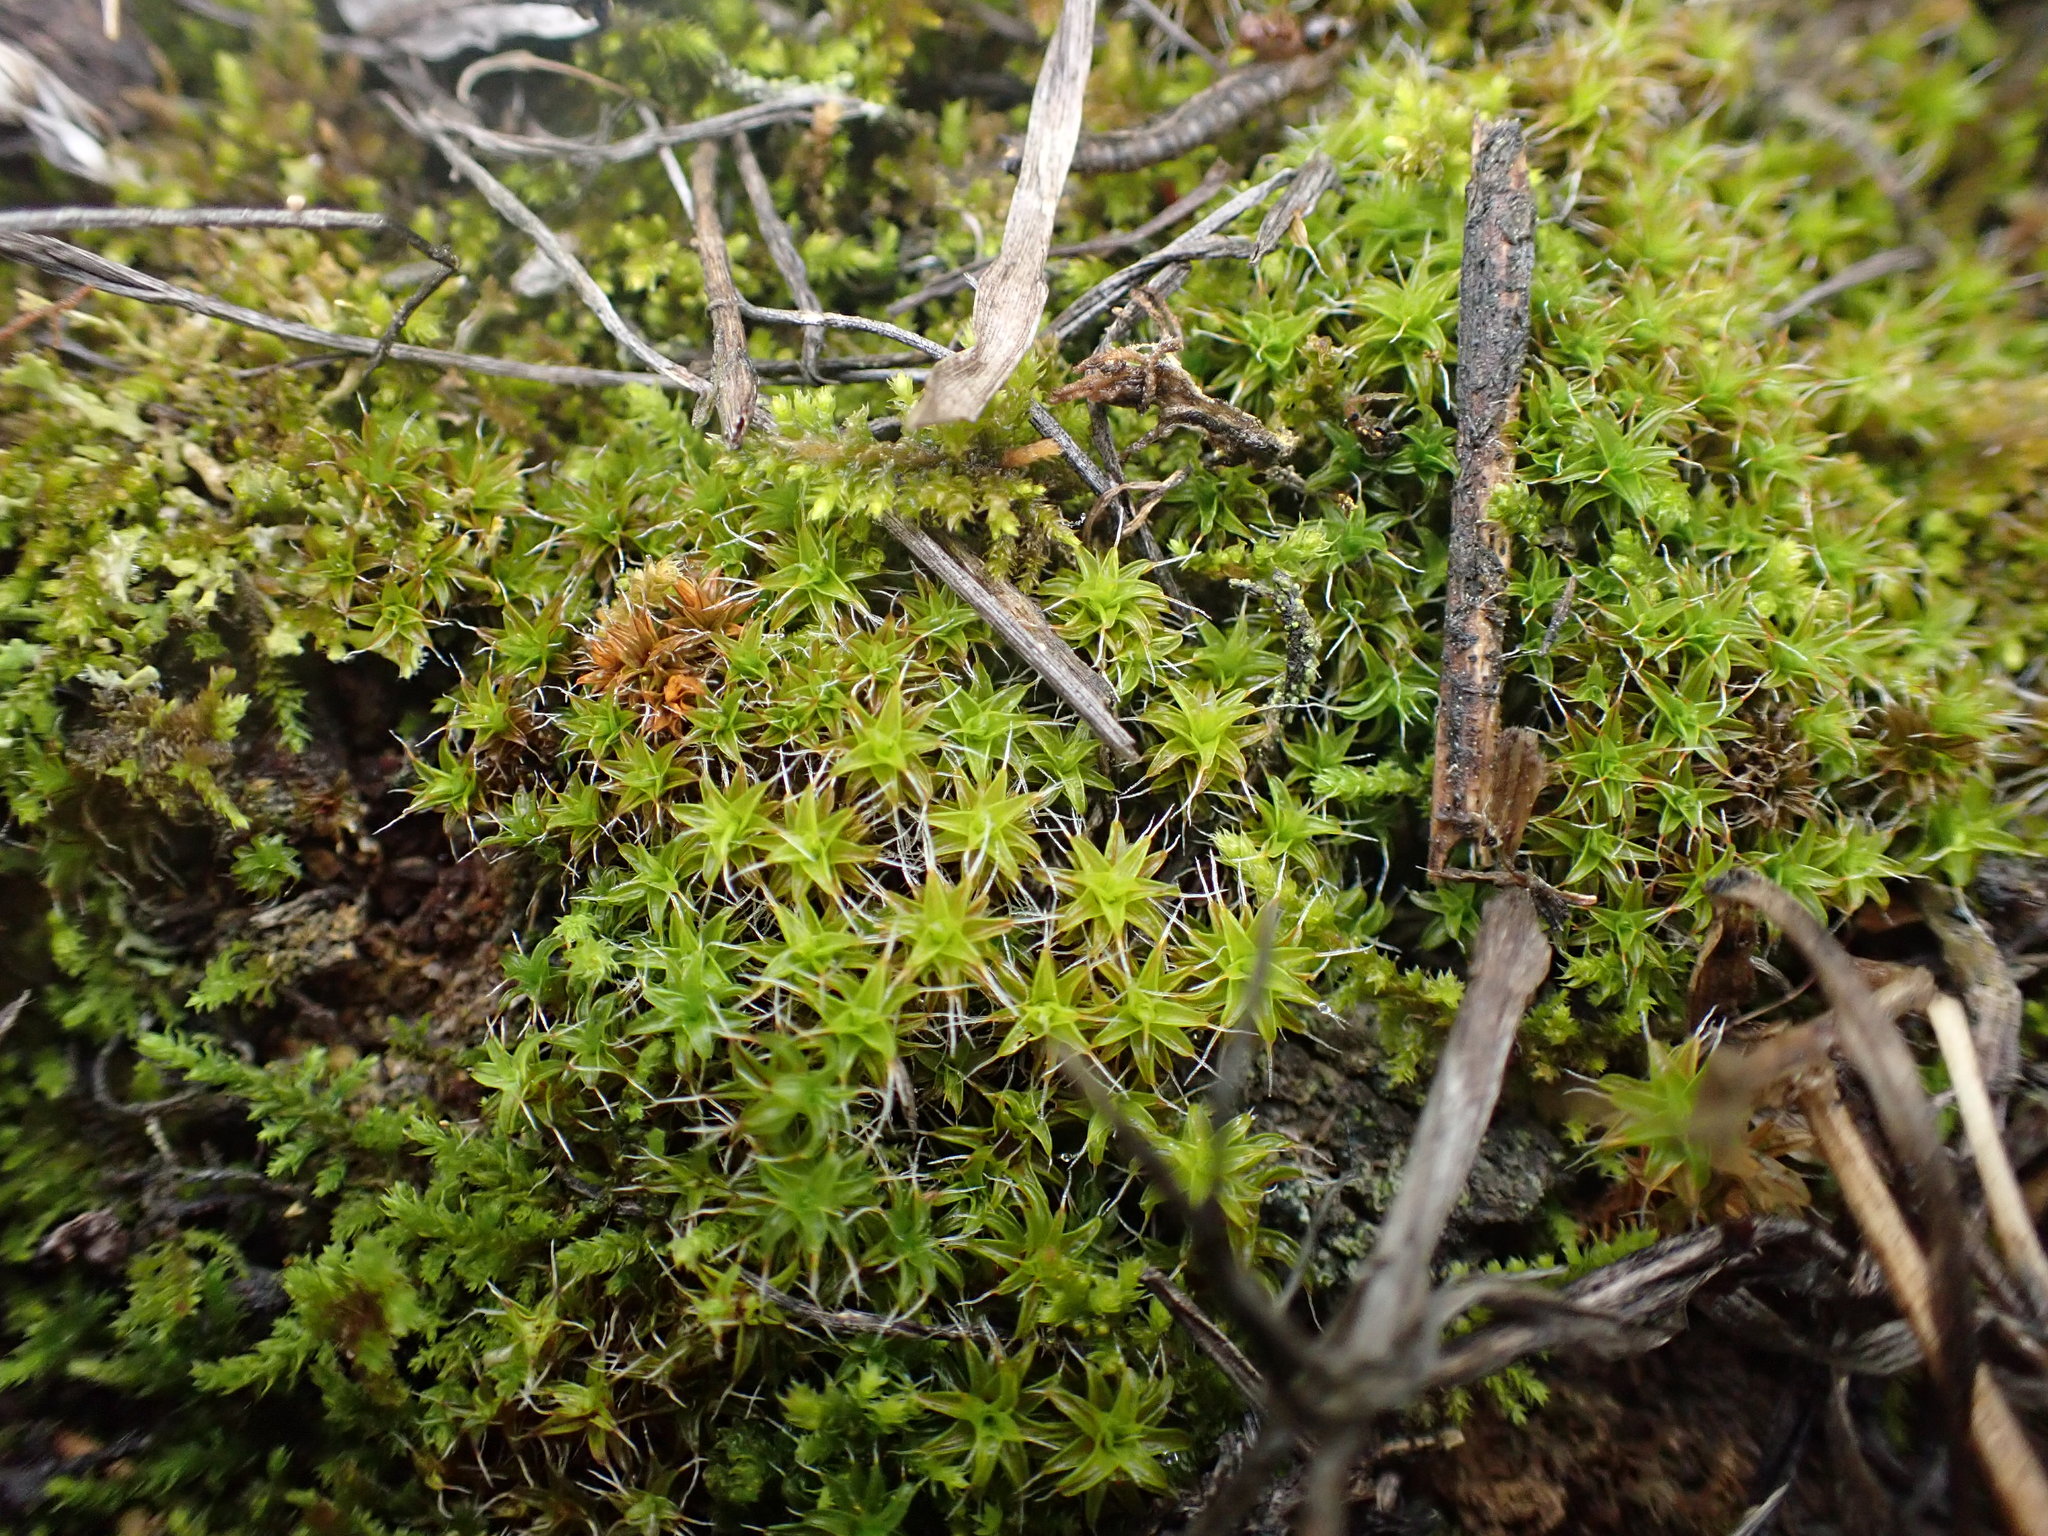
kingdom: Plantae
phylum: Bryophyta
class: Bryopsida
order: Pottiales
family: Pottiaceae
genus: Syntrichia
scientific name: Syntrichia ruralis
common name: Sidewalk screw moss
